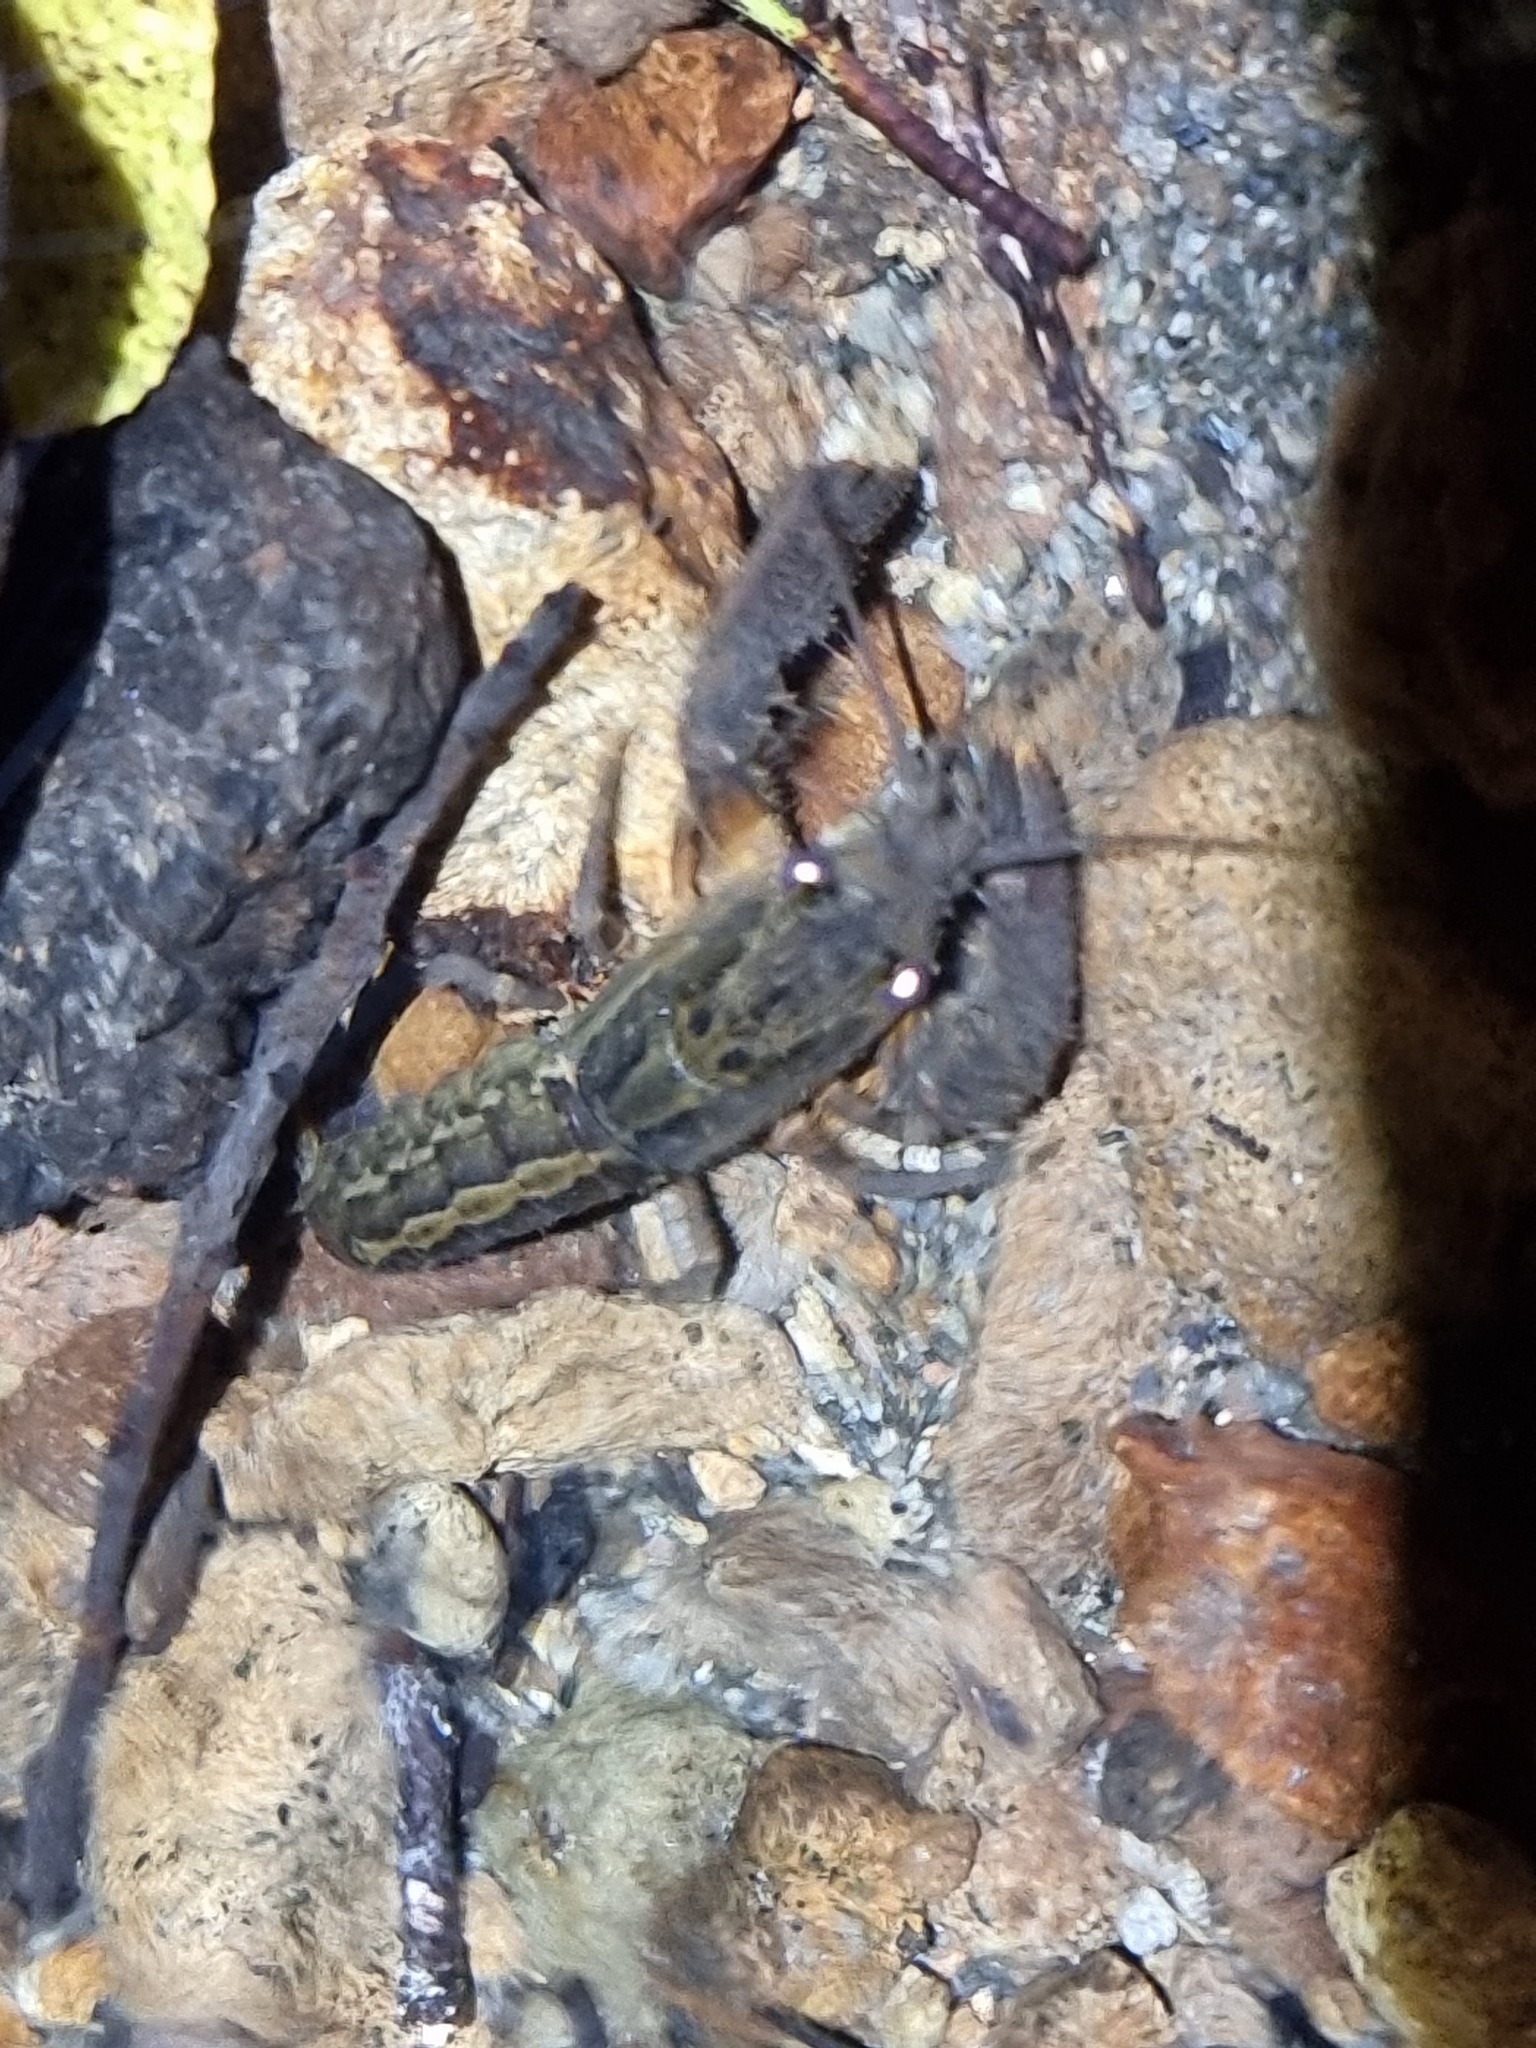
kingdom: Animalia
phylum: Arthropoda
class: Malacostraca
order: Decapoda
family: Parastacidae
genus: Paranephrops
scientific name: Paranephrops planifrons
